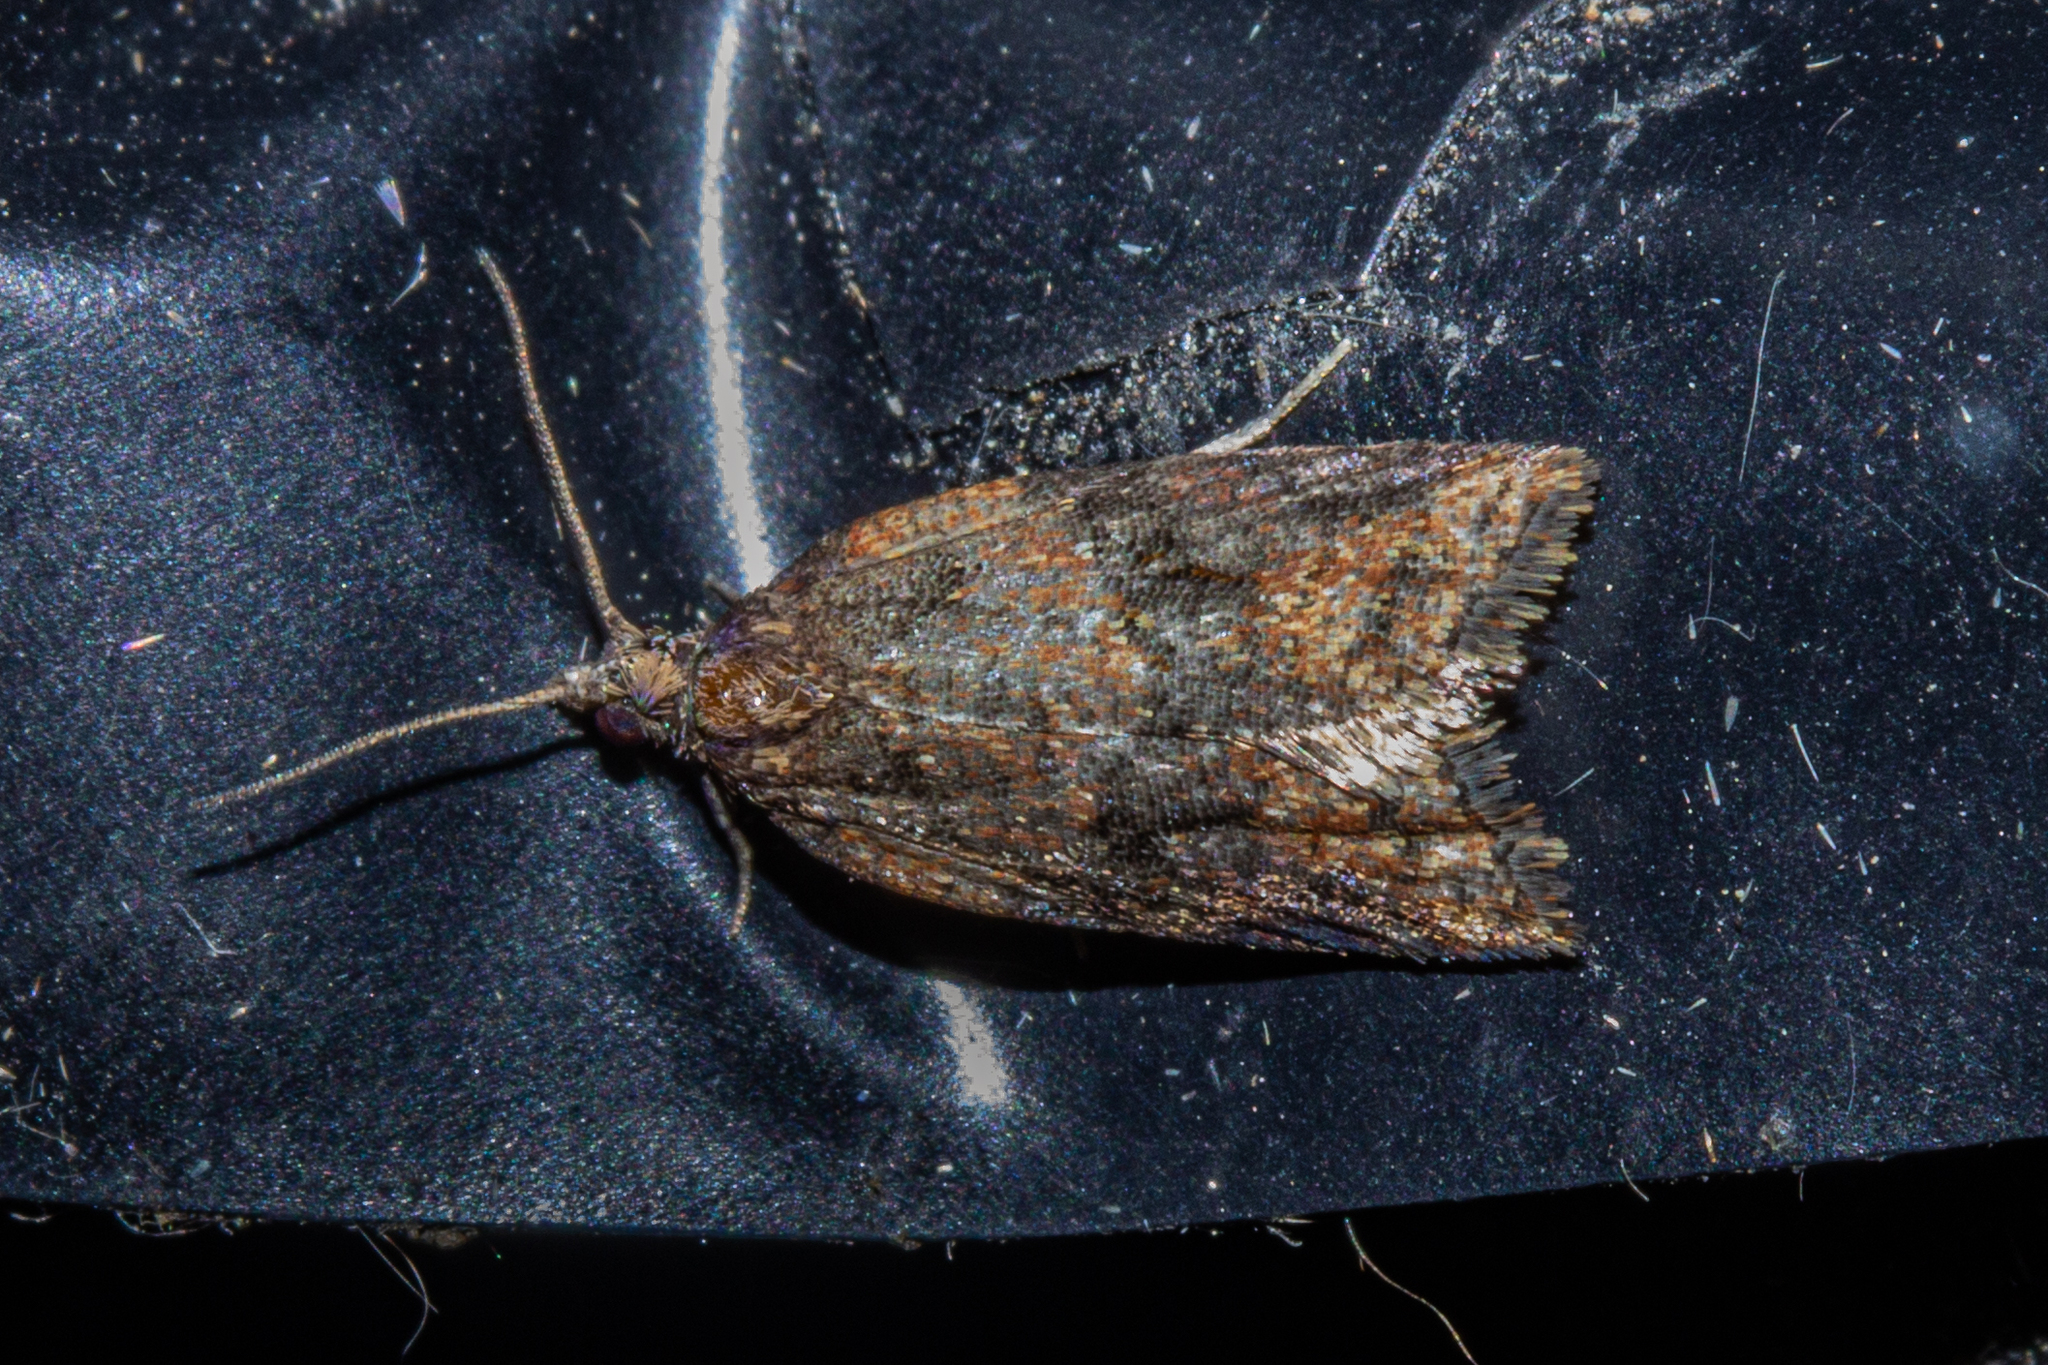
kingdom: Animalia
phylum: Arthropoda
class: Insecta
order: Lepidoptera
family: Tortricidae
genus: Capua
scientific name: Capua semiferana
